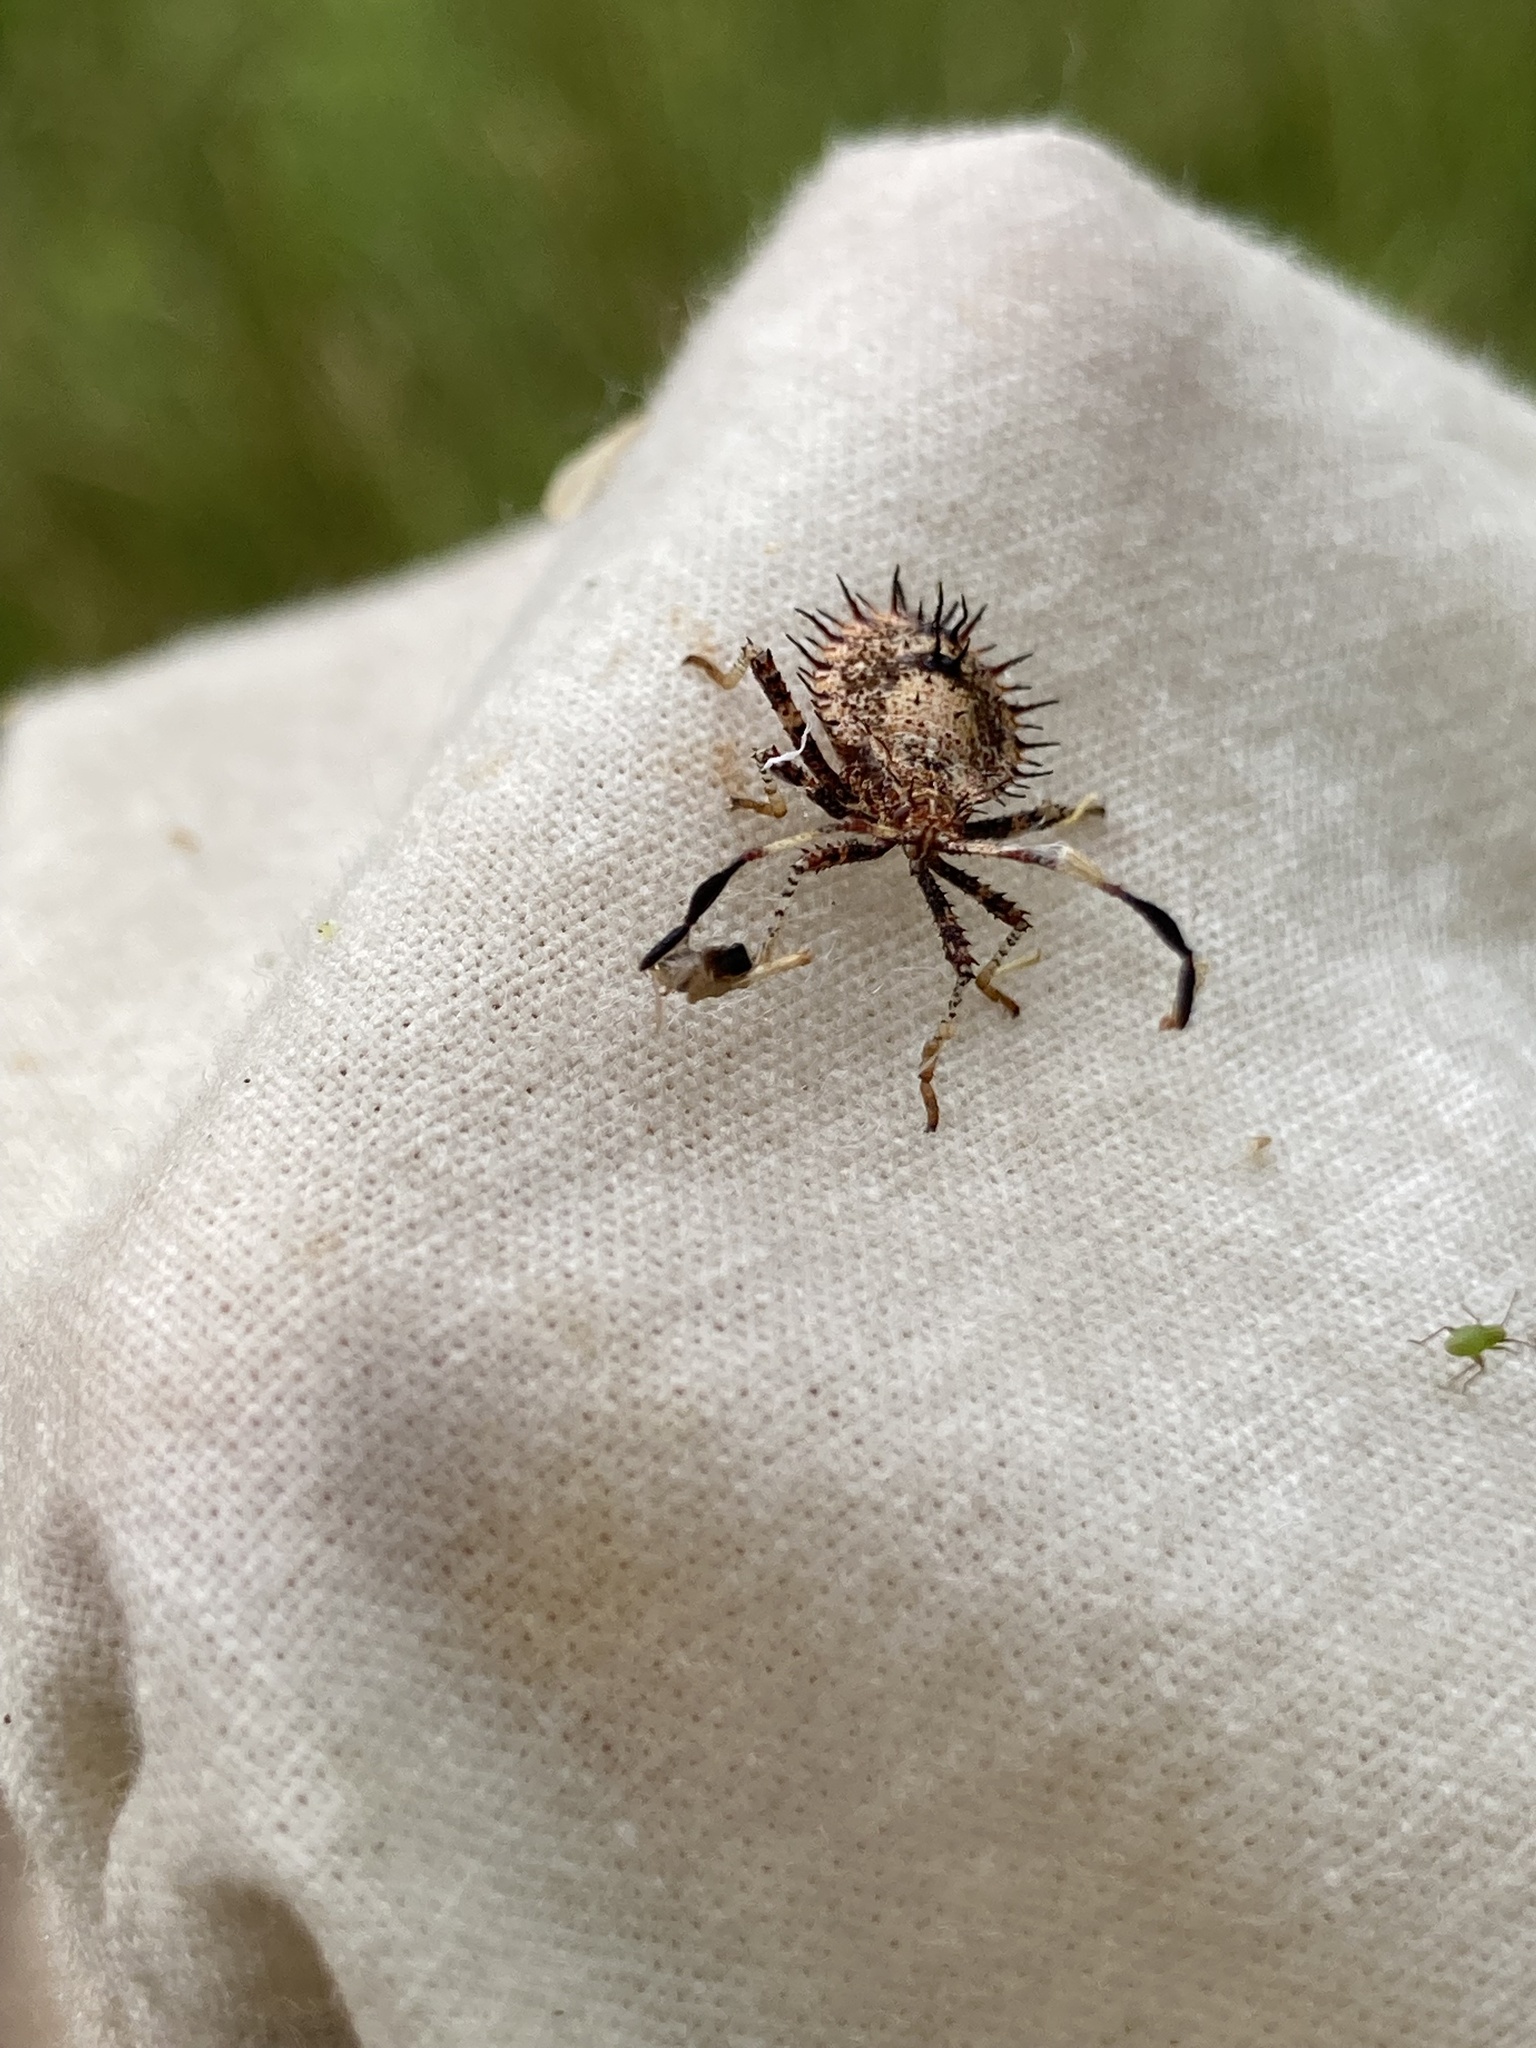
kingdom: Animalia
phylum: Arthropoda
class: Insecta
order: Hemiptera
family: Coreidae
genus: Euthochtha
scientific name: Euthochtha galeator
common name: Helmeted squash bug
